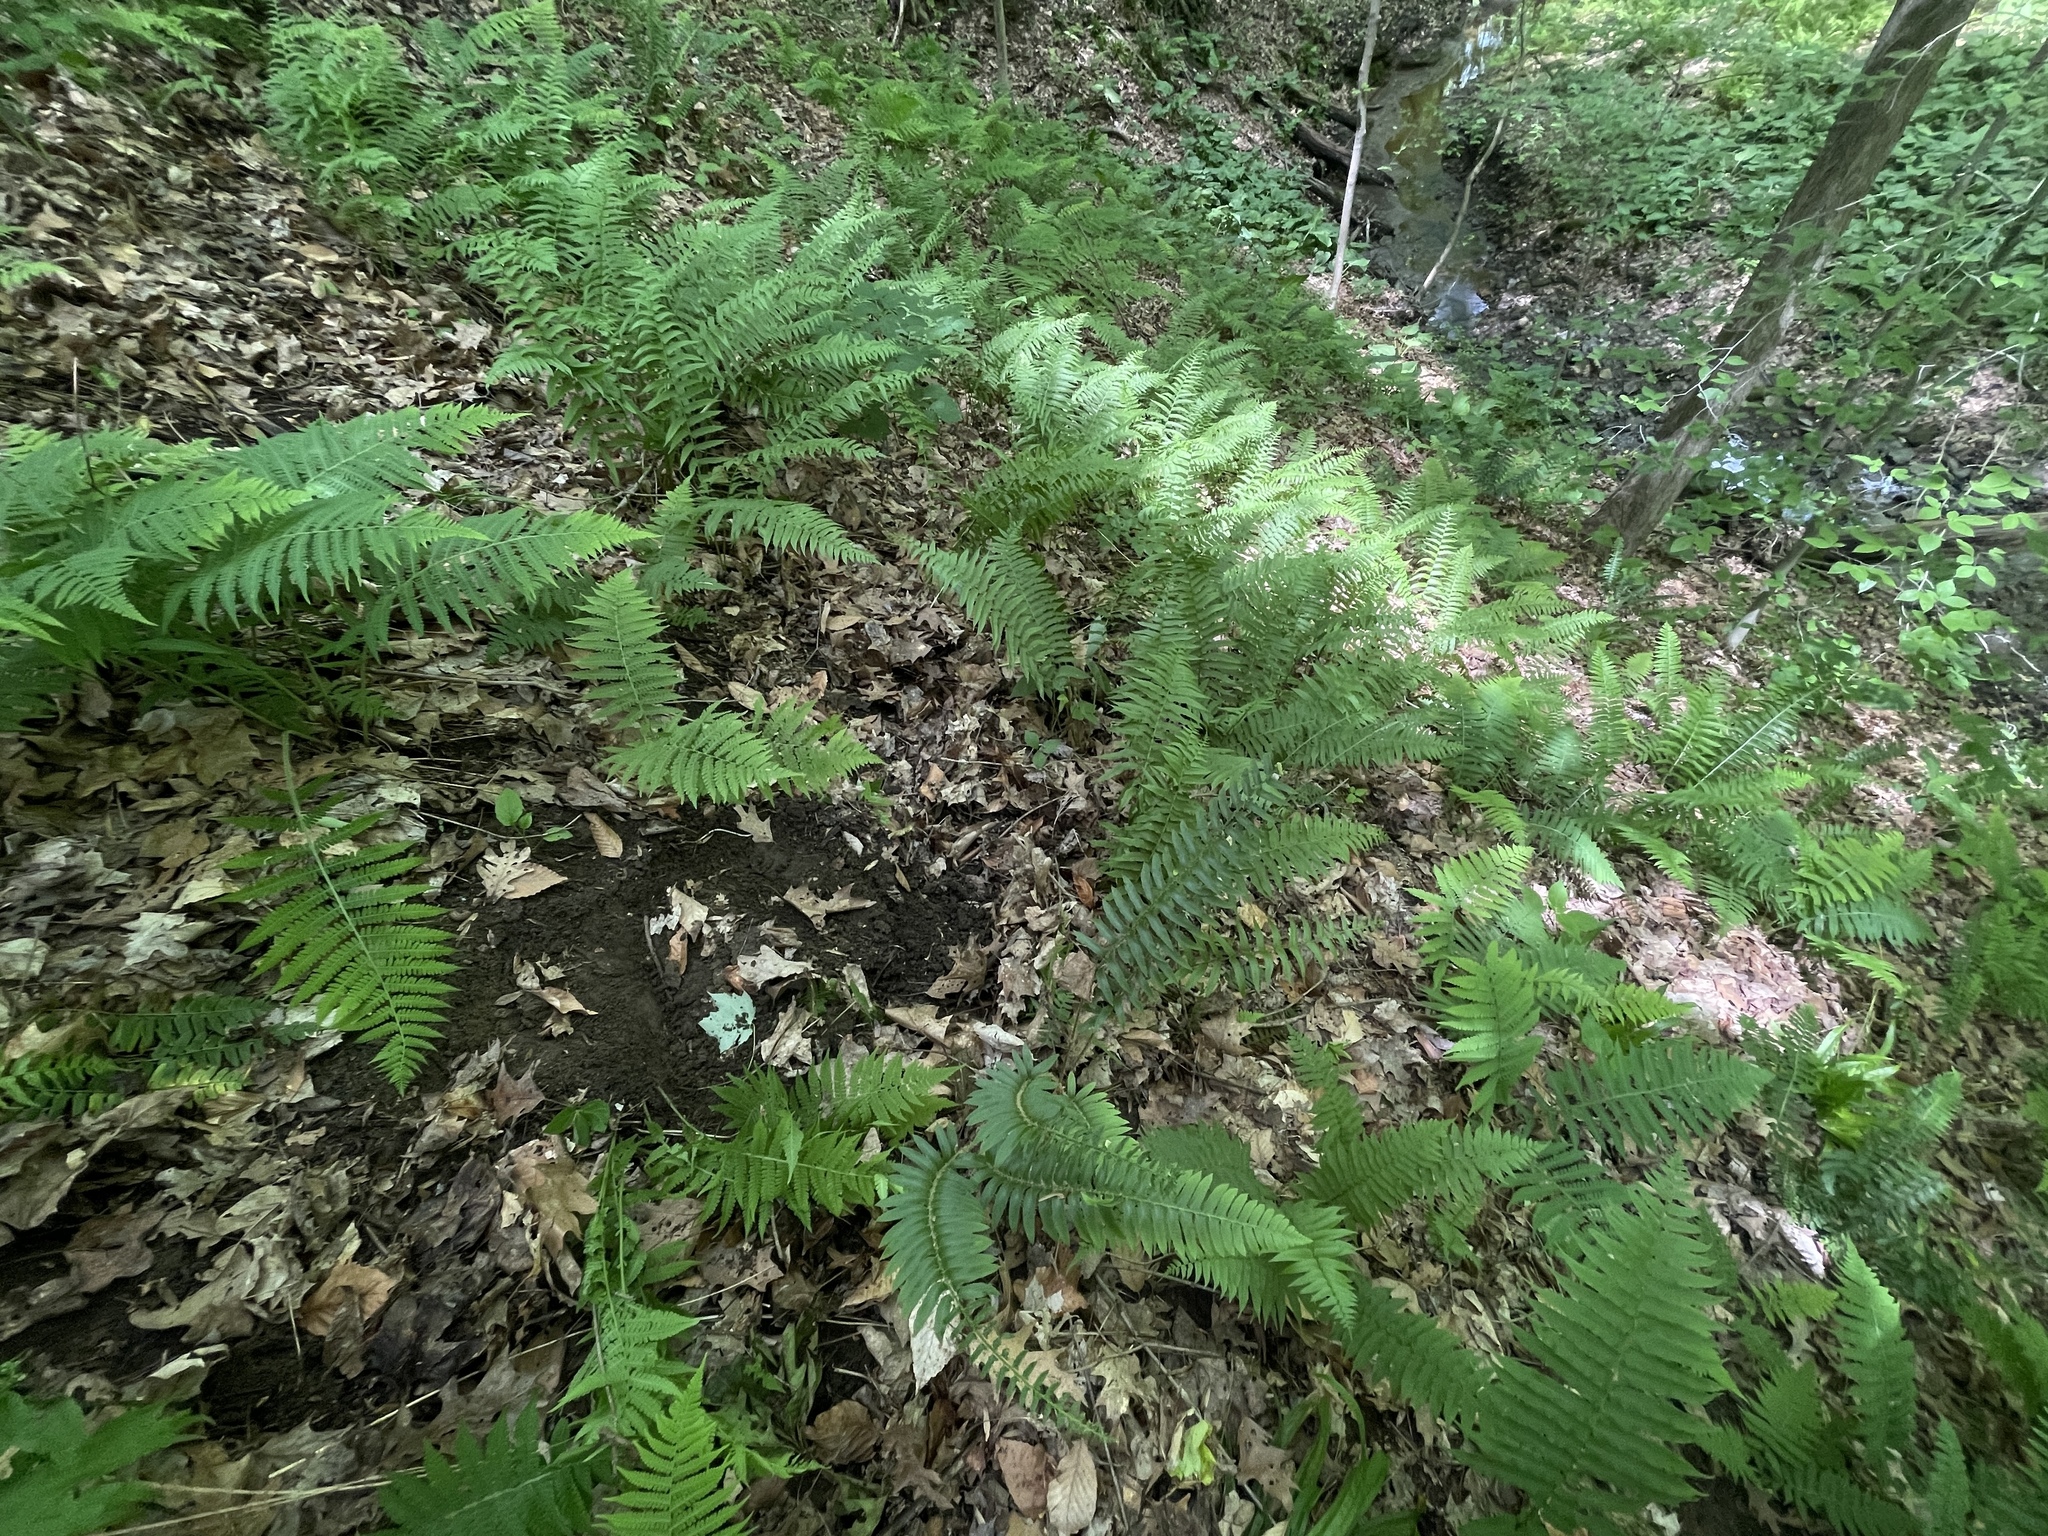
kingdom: Plantae
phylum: Tracheophyta
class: Polypodiopsida
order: Polypodiales
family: Diplaziopsidaceae
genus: Homalosorus
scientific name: Homalosorus pycnocarpos
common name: Glade fern
